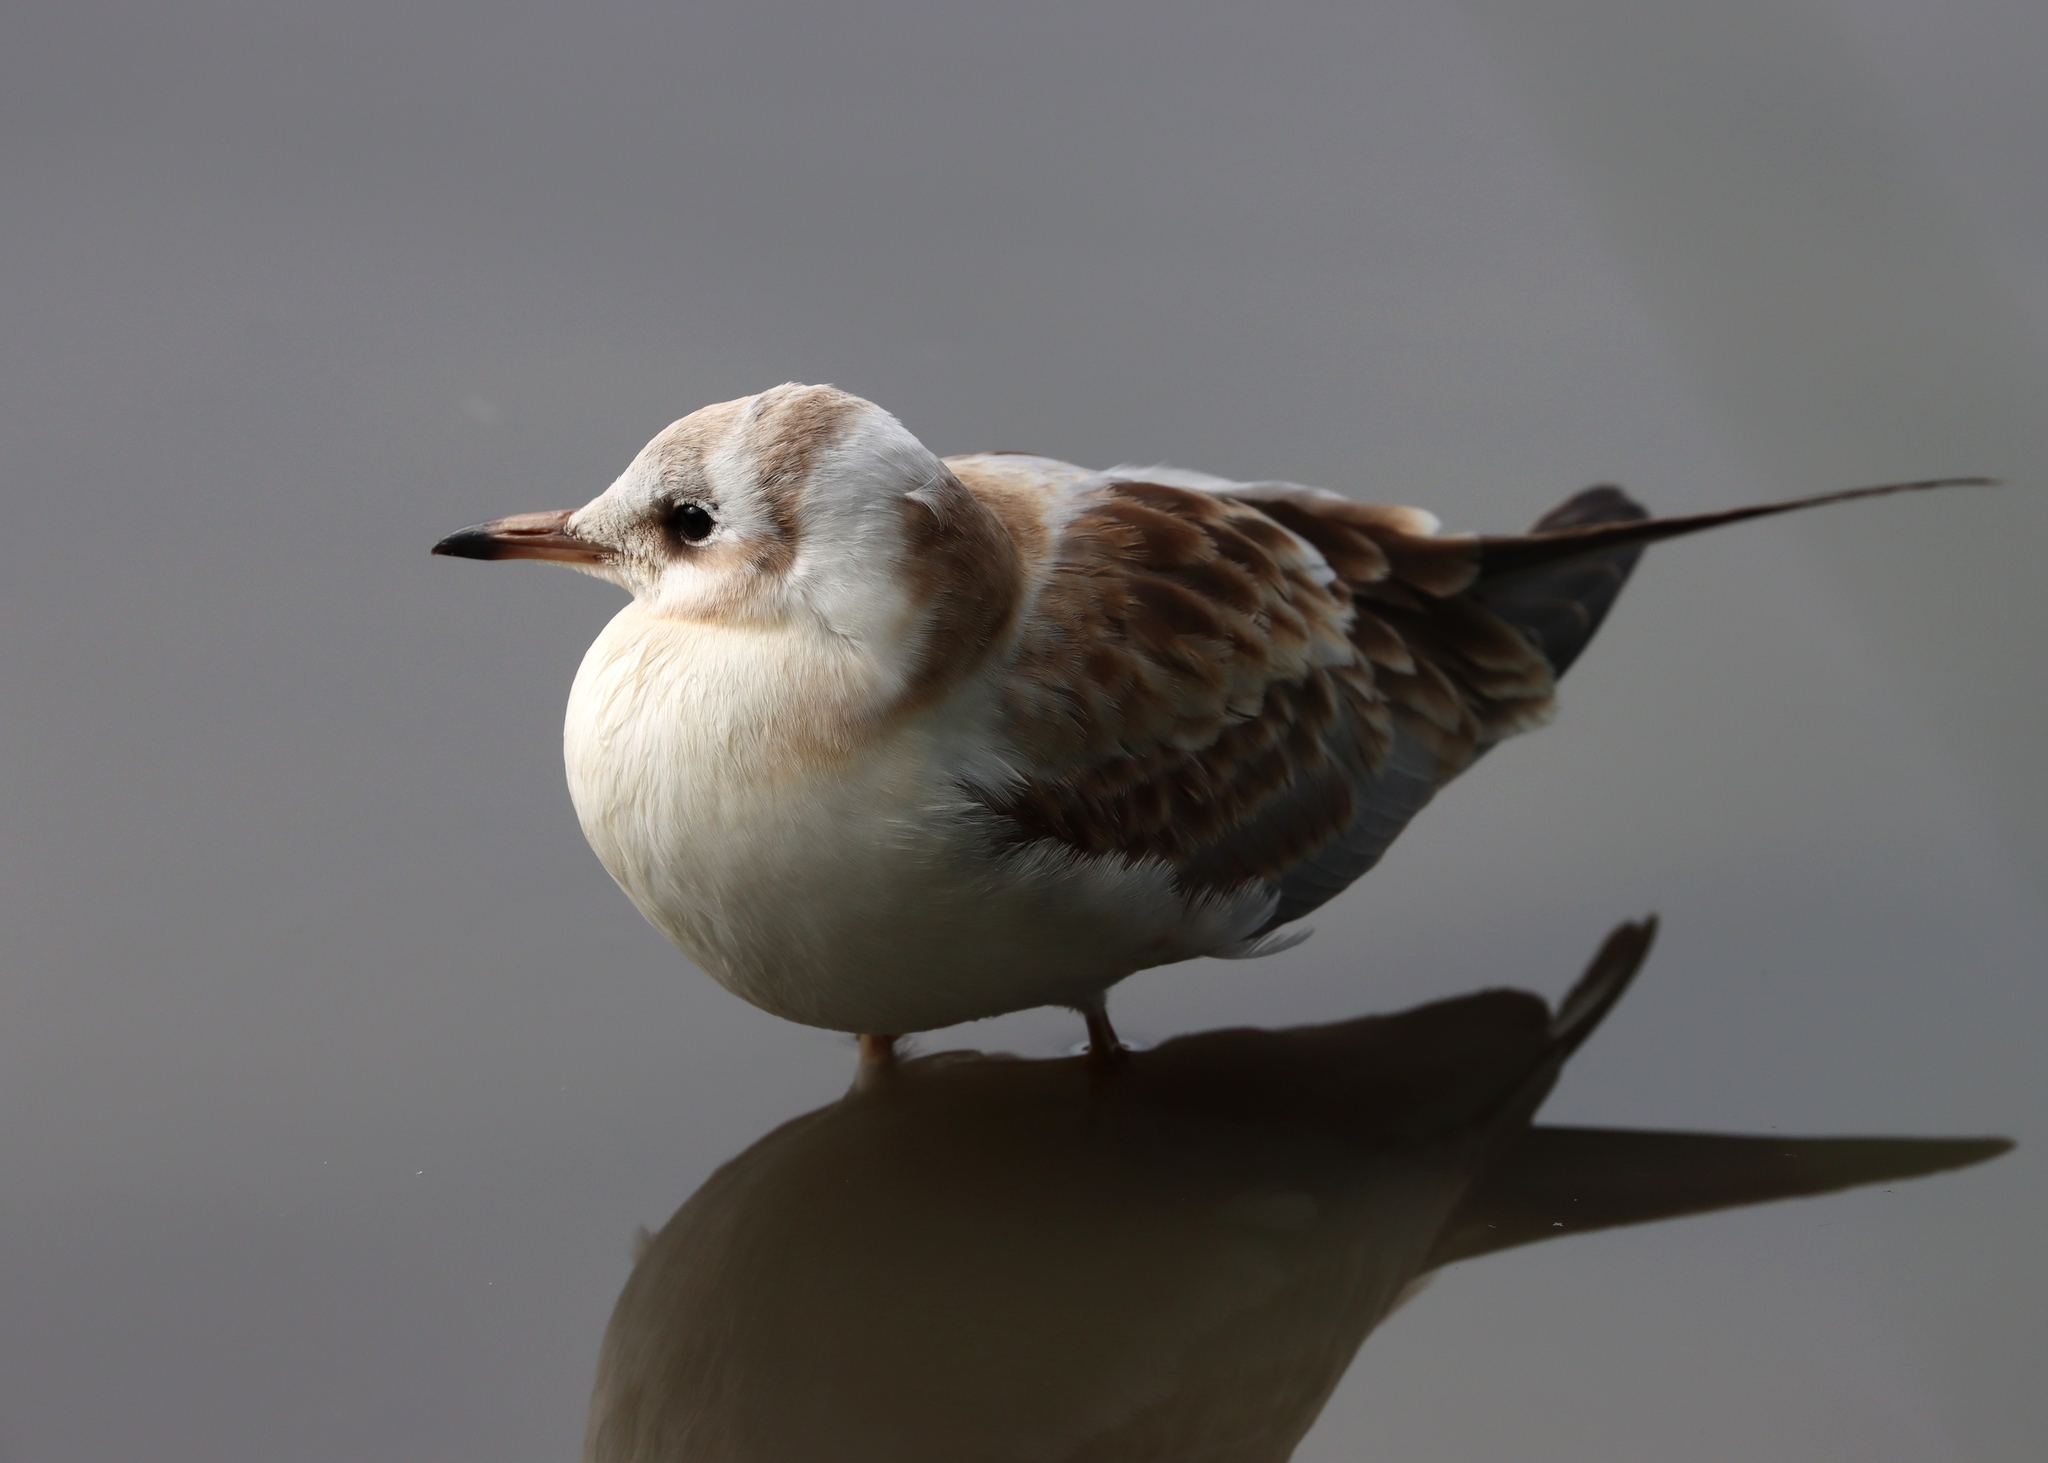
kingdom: Animalia
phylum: Chordata
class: Aves
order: Charadriiformes
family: Laridae
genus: Chroicocephalus
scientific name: Chroicocephalus ridibundus
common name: Black-headed gull
